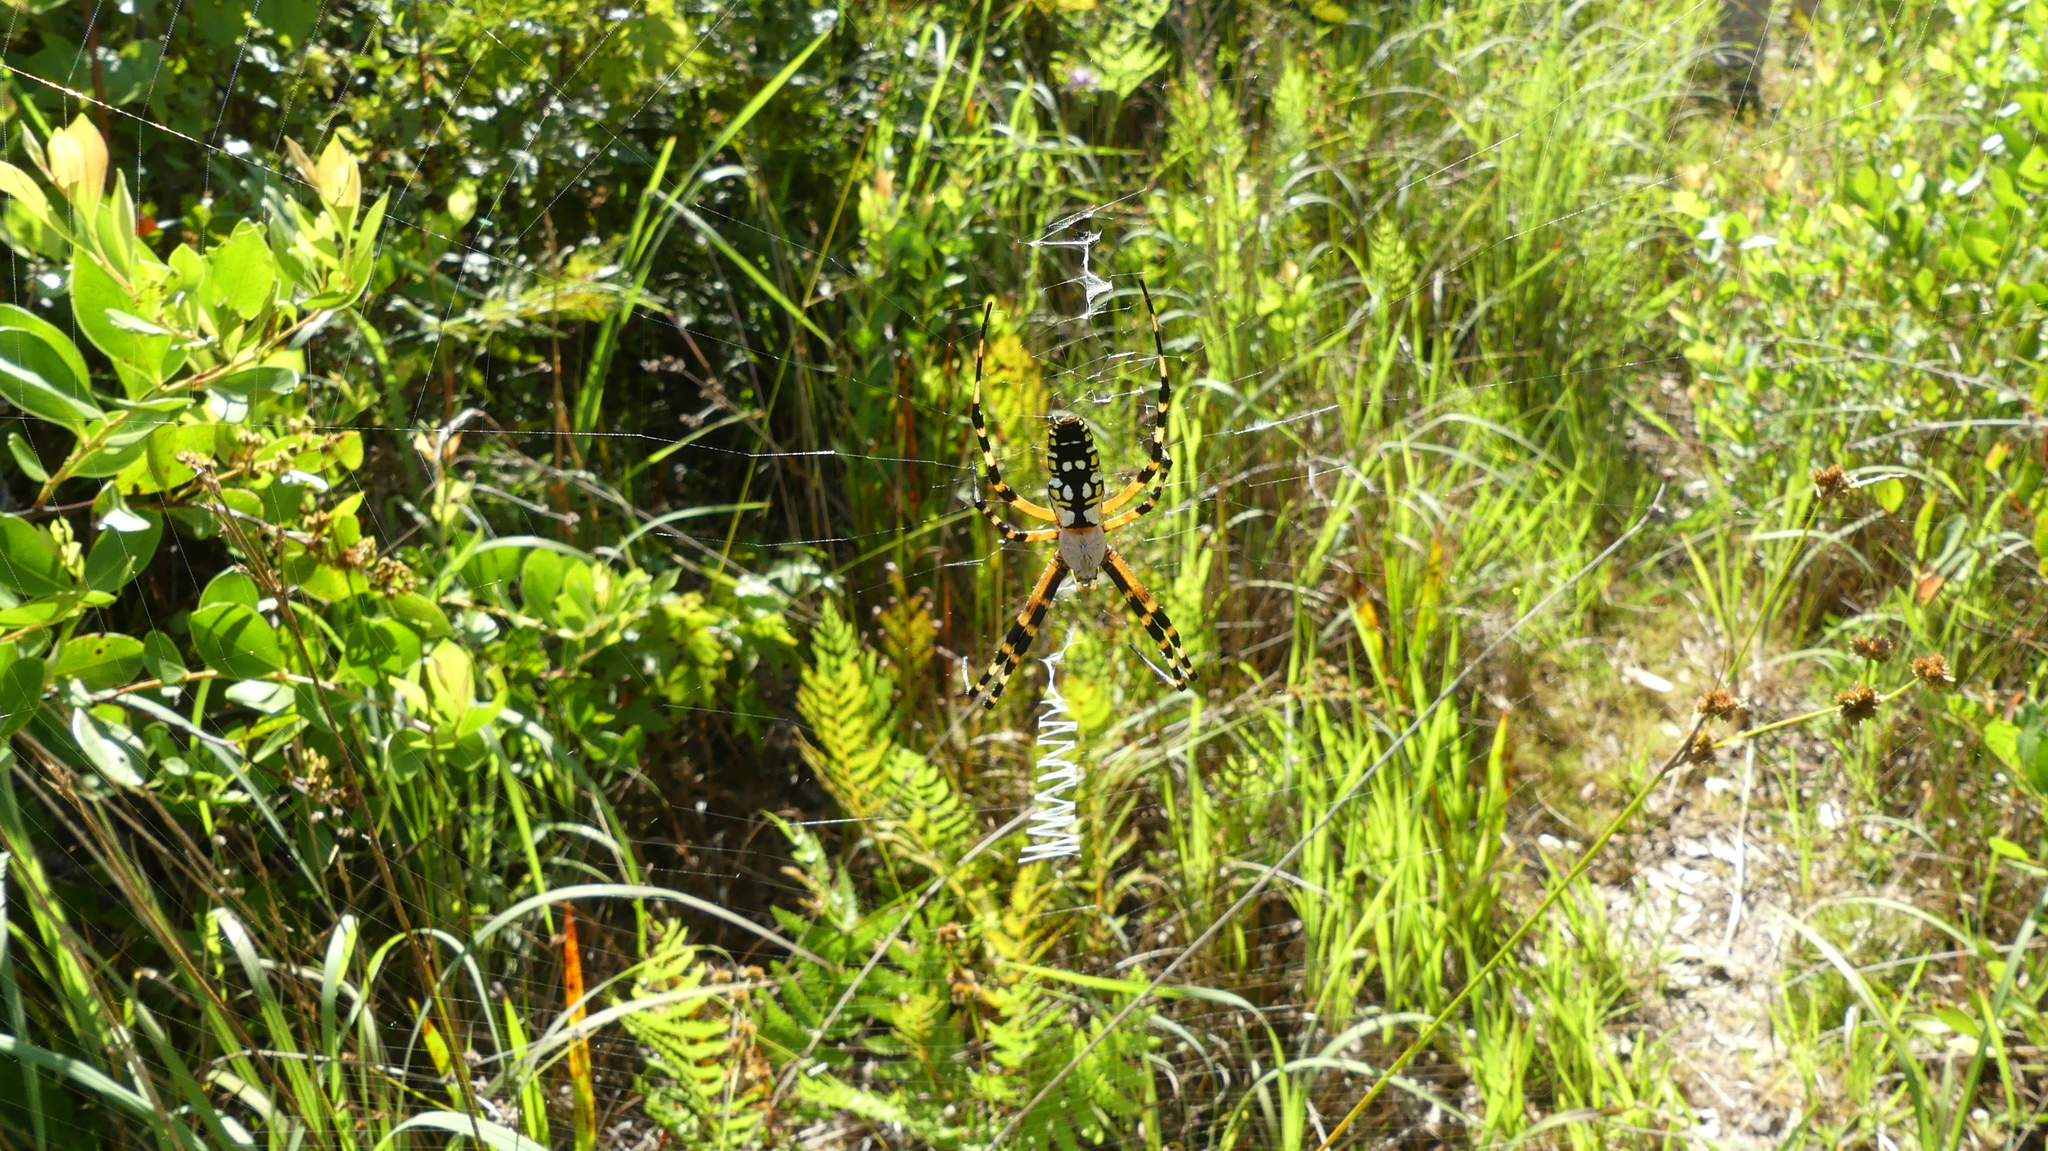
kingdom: Animalia
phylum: Arthropoda
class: Arachnida
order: Araneae
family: Araneidae
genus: Argiope
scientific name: Argiope aurantia
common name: Orb weavers
